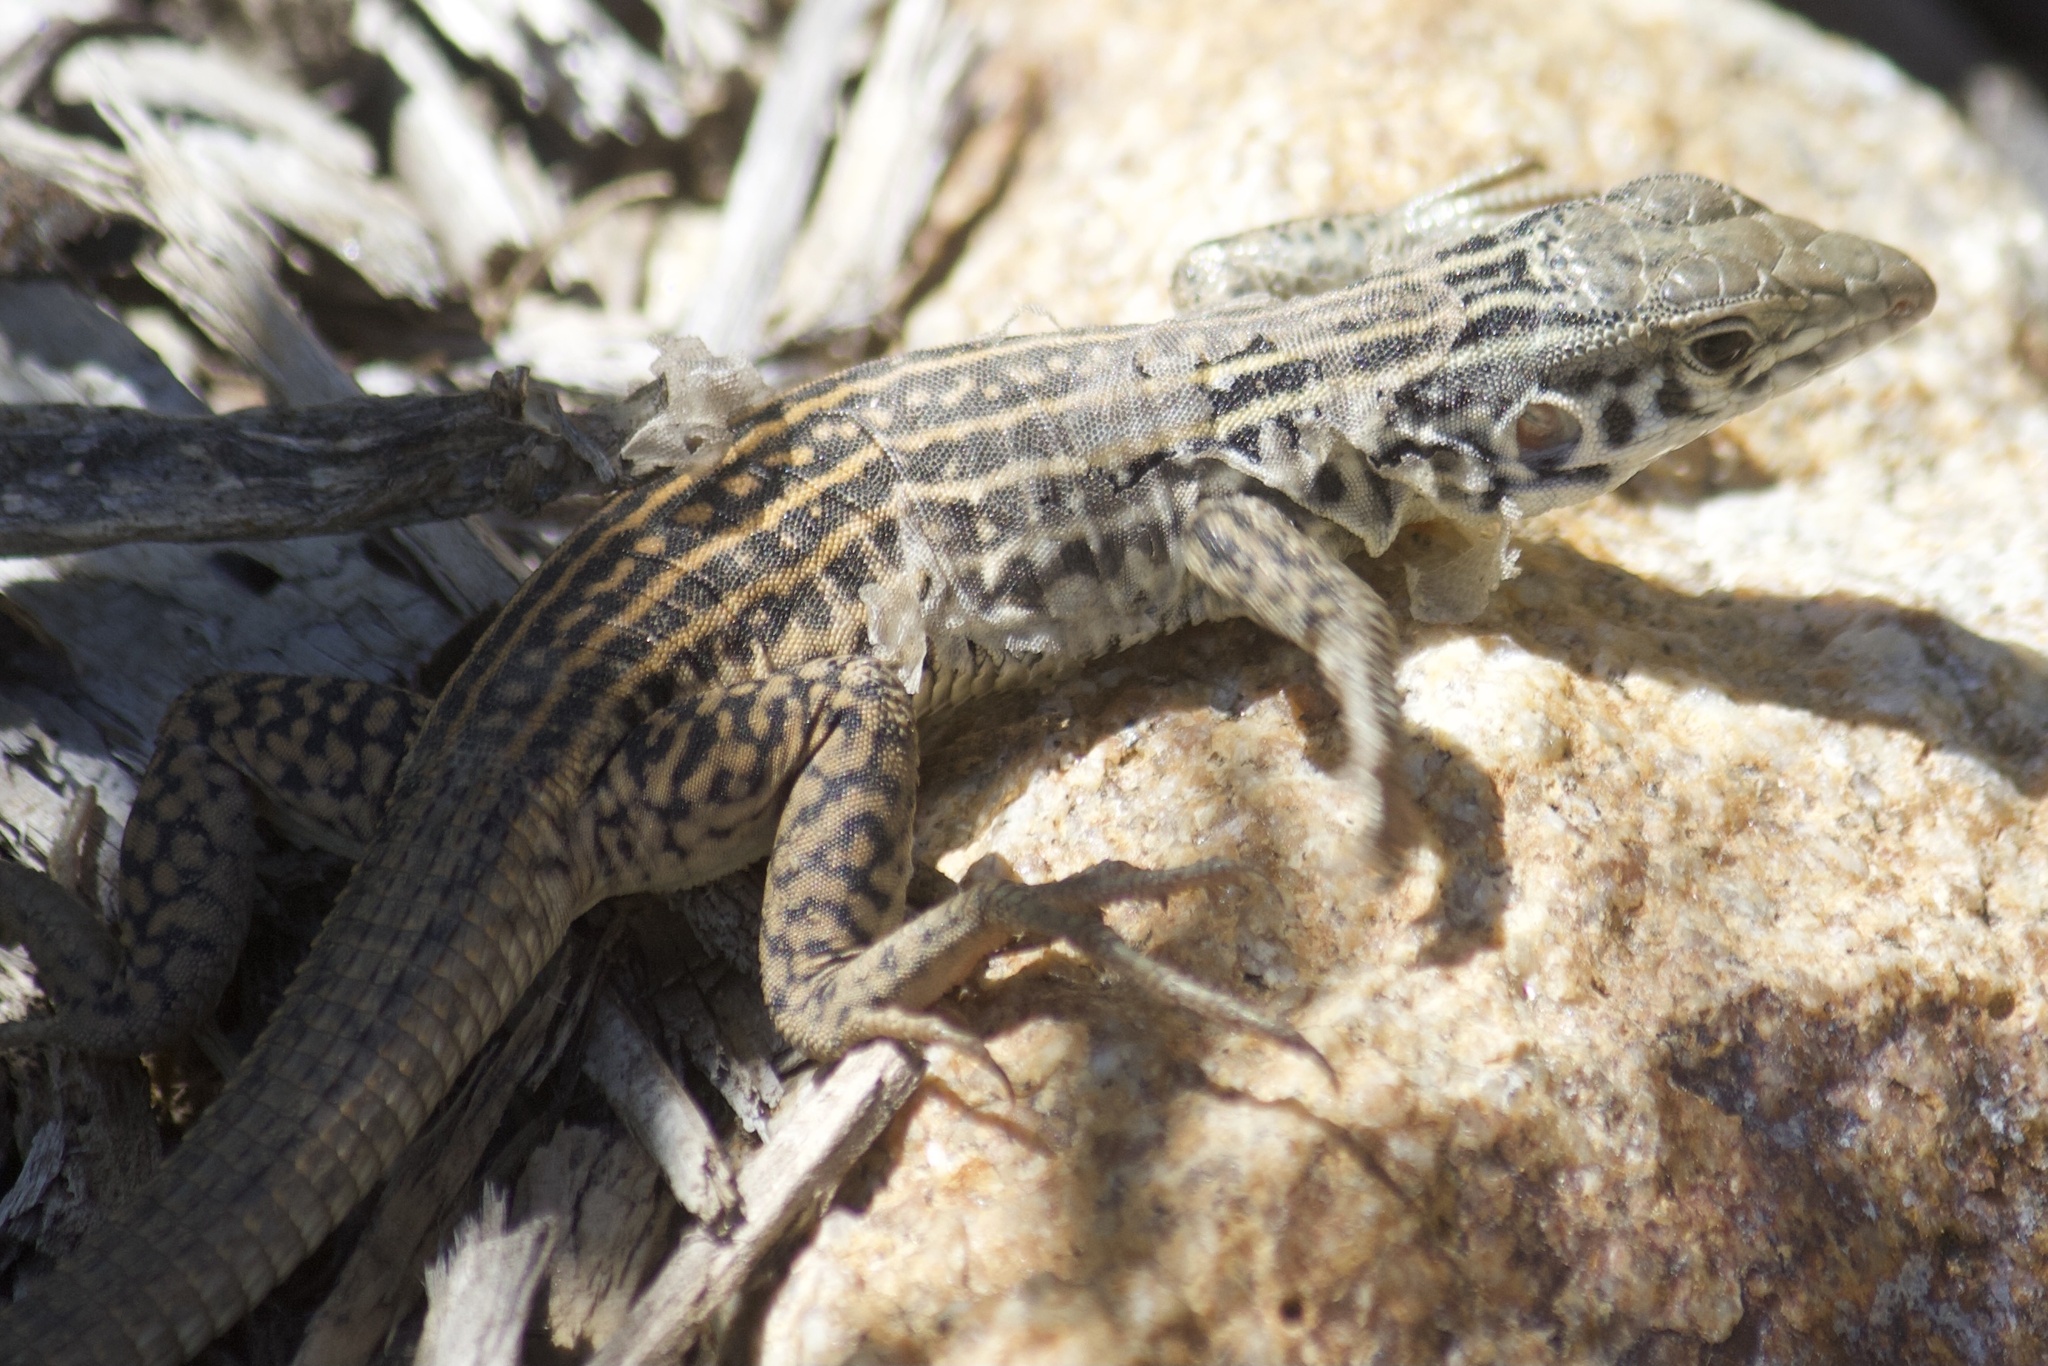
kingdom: Animalia
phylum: Chordata
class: Squamata
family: Teiidae
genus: Aspidoscelis
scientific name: Aspidoscelis tigris
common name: Tiger whiptail
